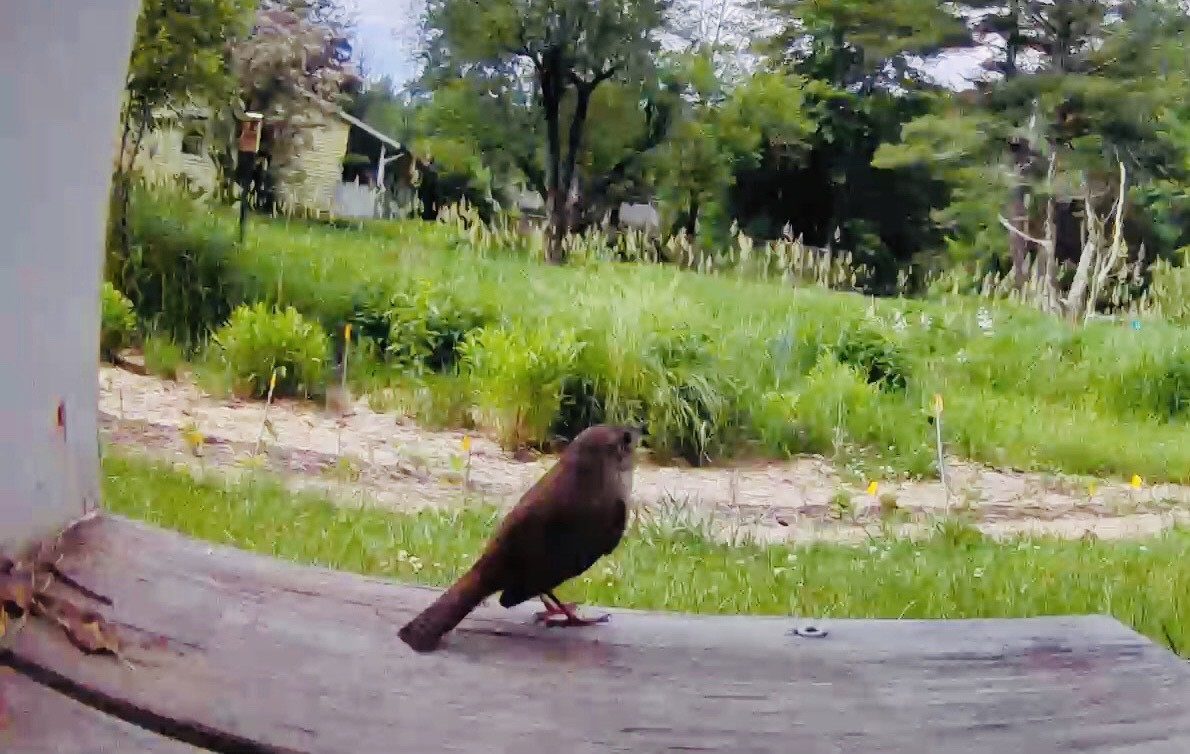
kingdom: Animalia
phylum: Chordata
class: Aves
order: Passeriformes
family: Troglodytidae
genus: Troglodytes
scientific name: Troglodytes aedon
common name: House wren
